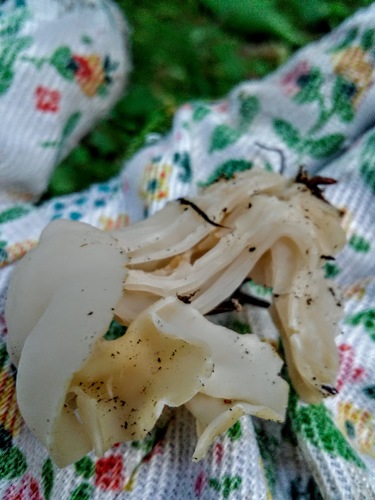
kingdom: Fungi
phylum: Ascomycota
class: Pezizomycetes
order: Pezizales
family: Helvellaceae
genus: Helvella
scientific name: Helvella crispa
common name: White saddle
